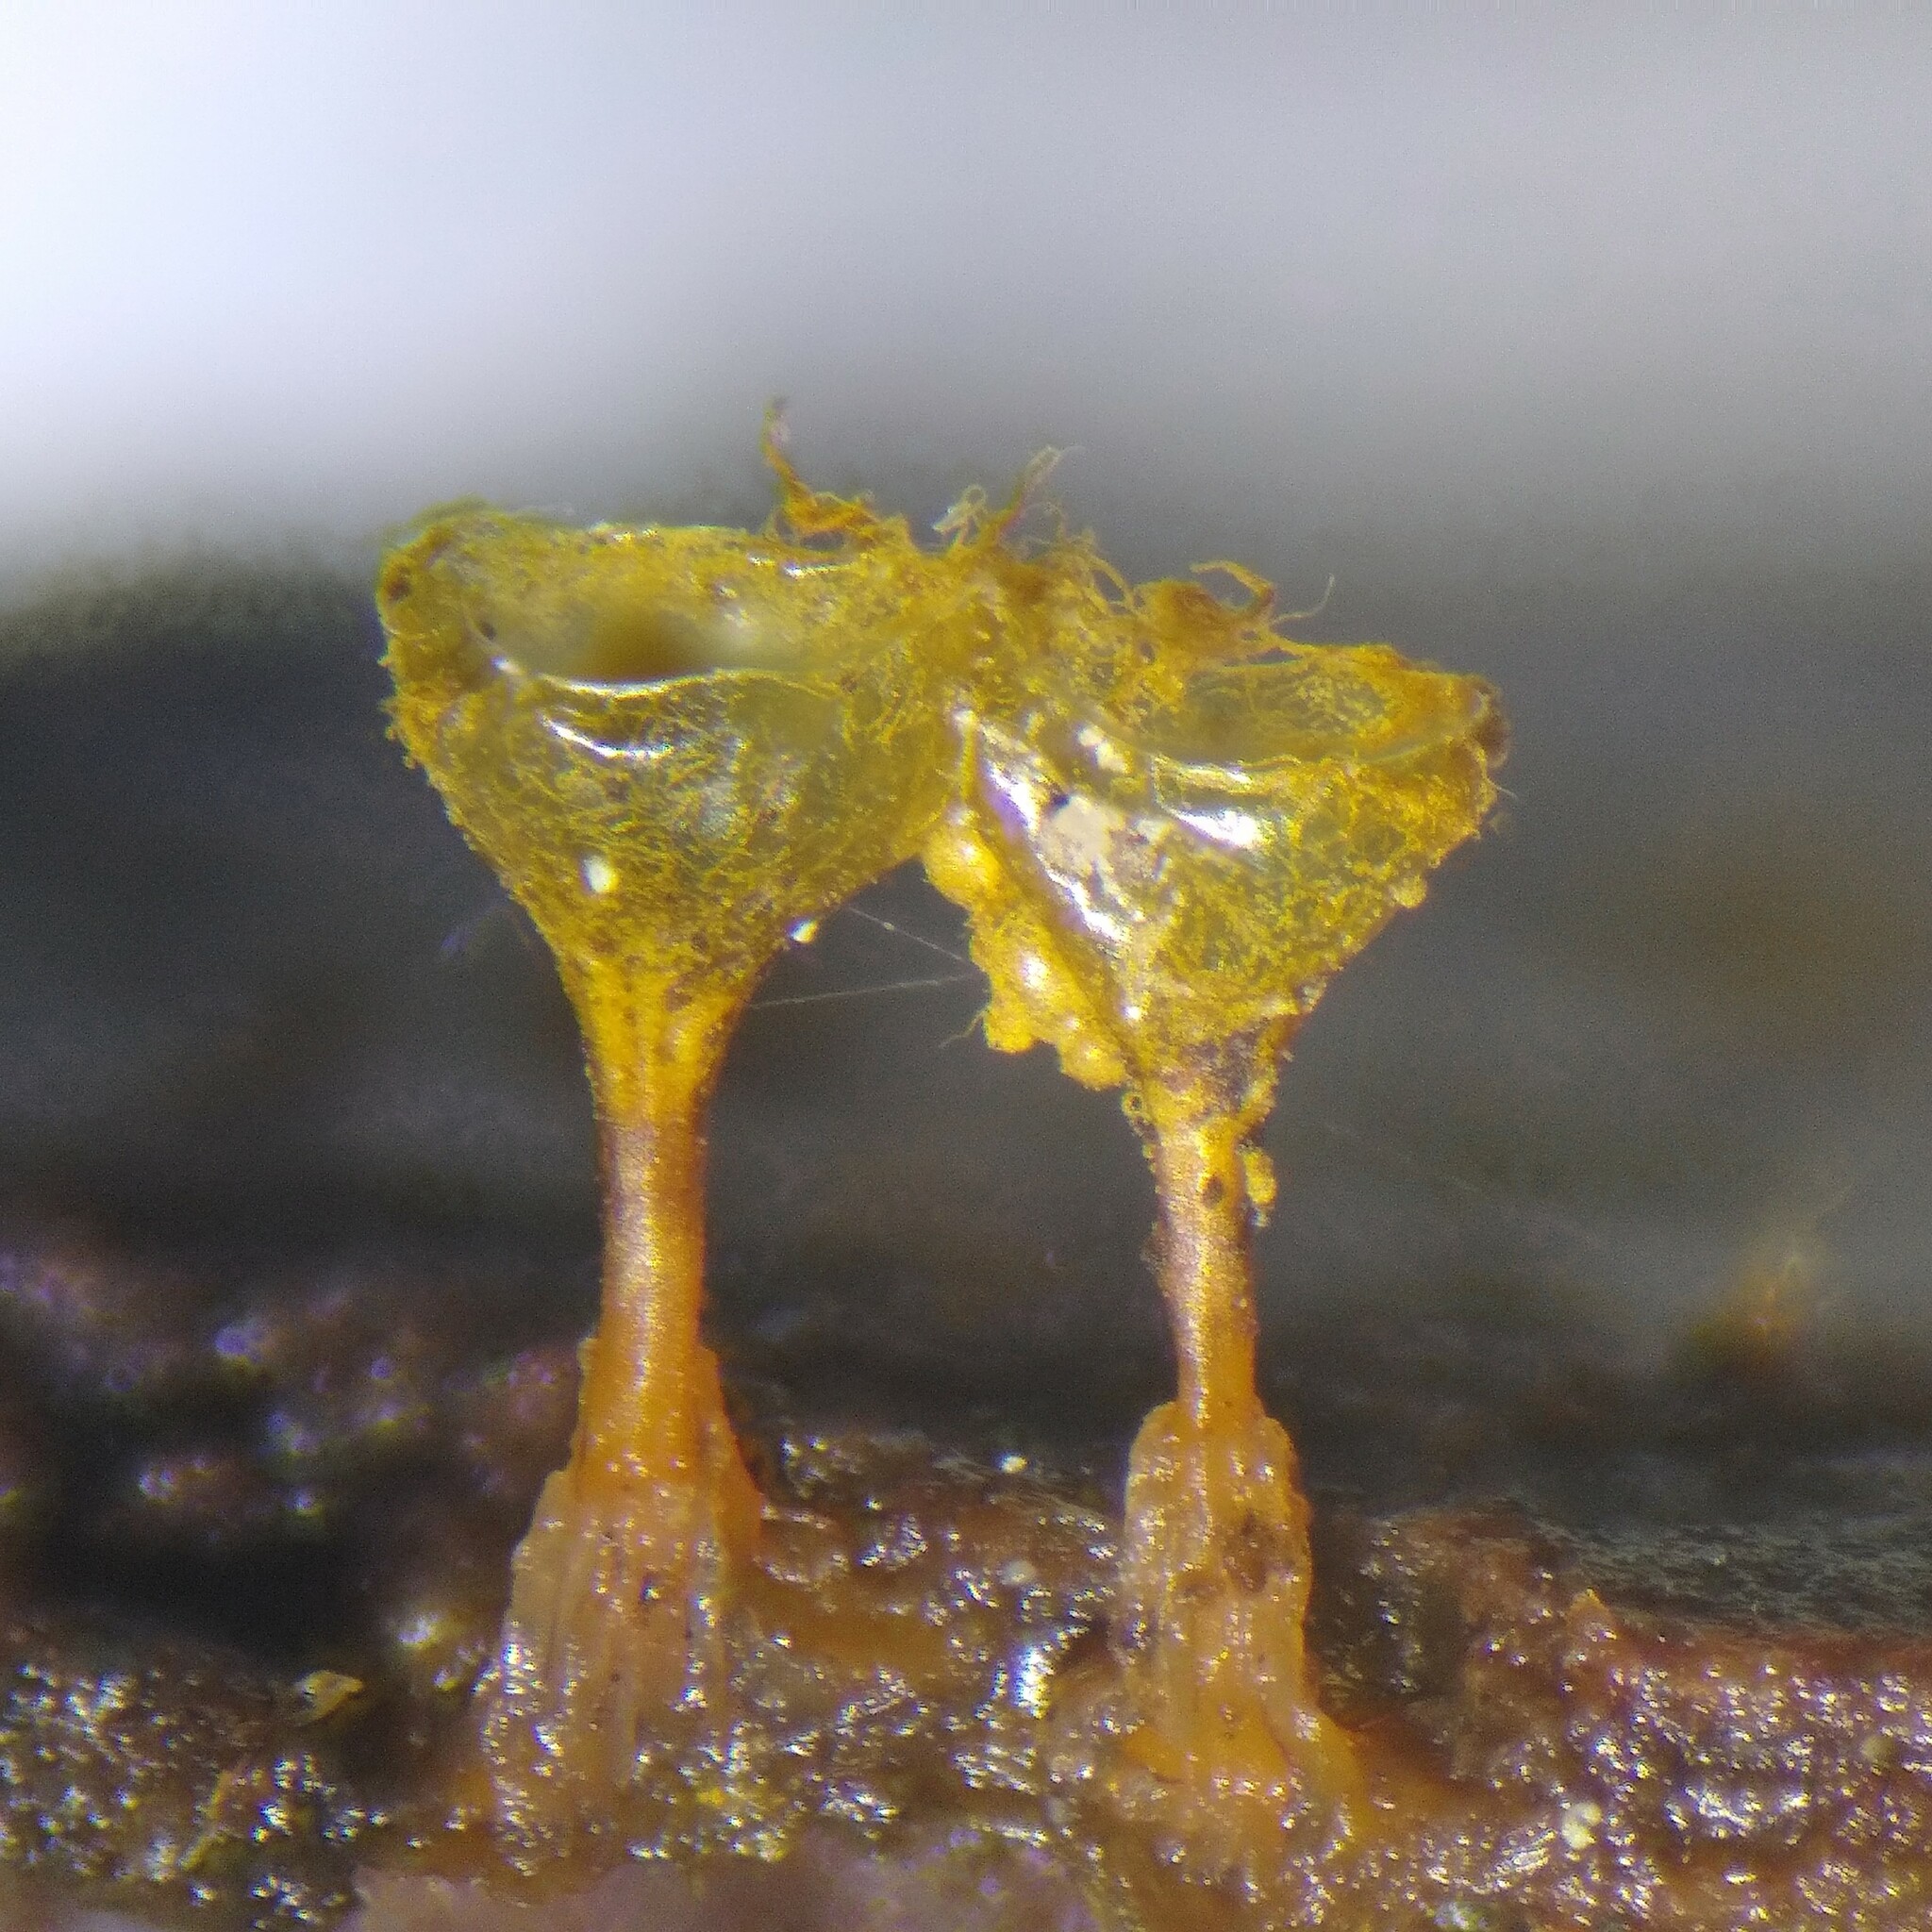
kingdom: Protozoa
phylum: Mycetozoa
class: Myxomycetes
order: Trichiales
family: Trichiaceae
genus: Trichia
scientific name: Trichia crateriformis
